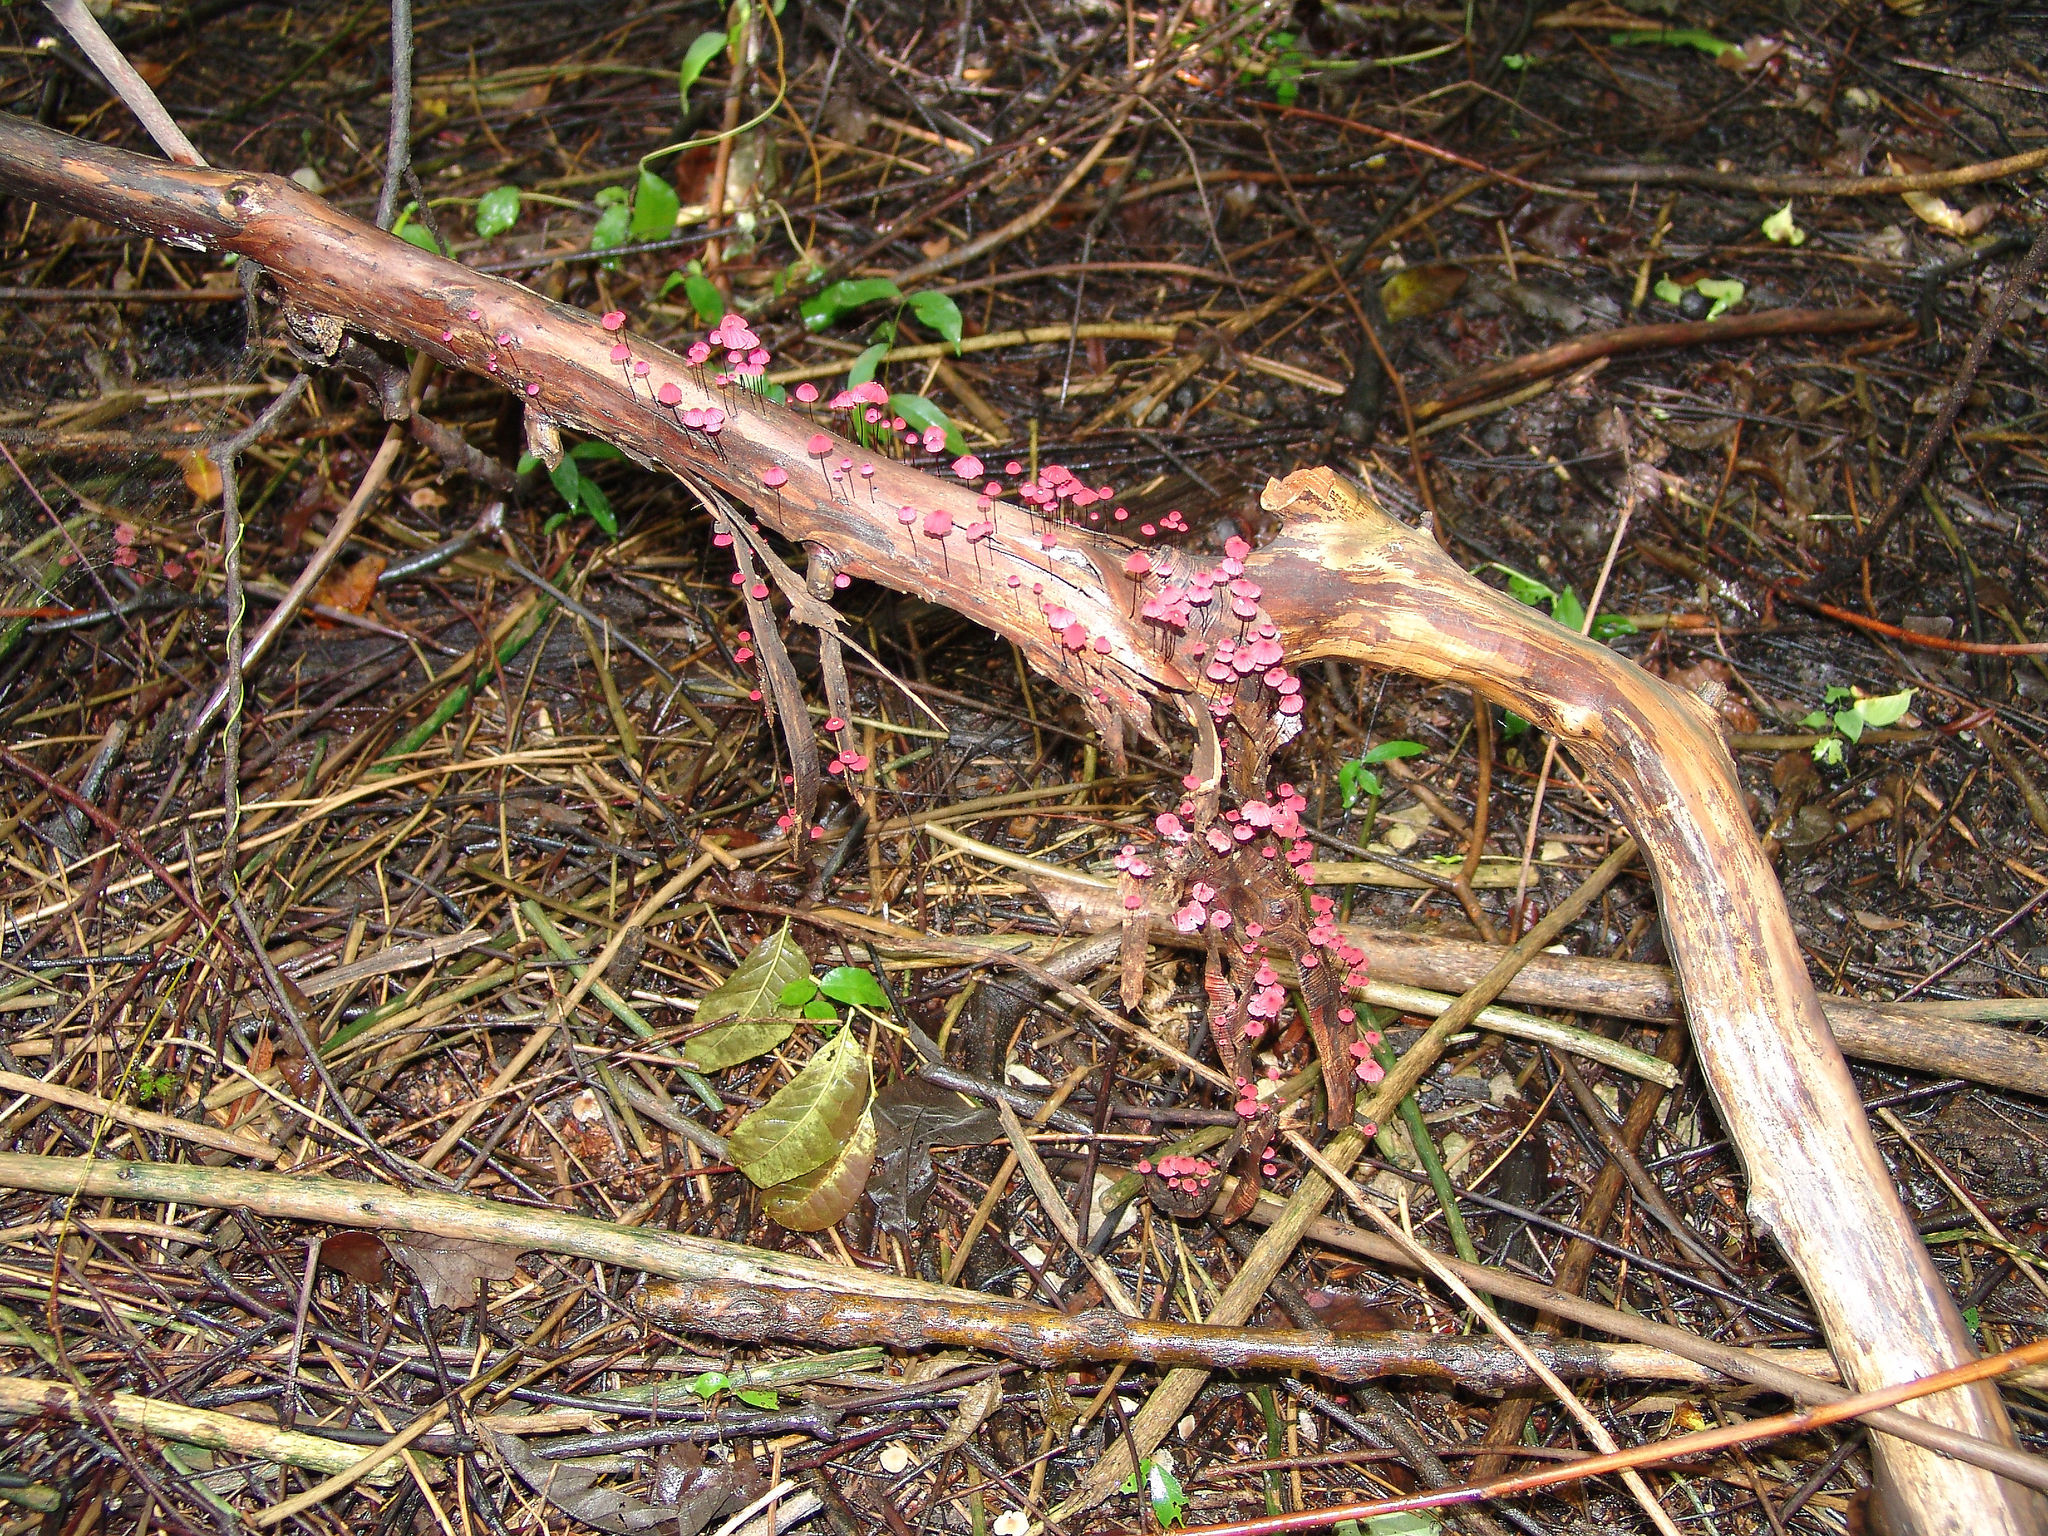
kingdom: Fungi
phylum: Basidiomycota
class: Agaricomycetes
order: Agaricales
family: Marasmiaceae
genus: Marasmius
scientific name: Marasmius pulcherripes
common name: Rosy parachute
